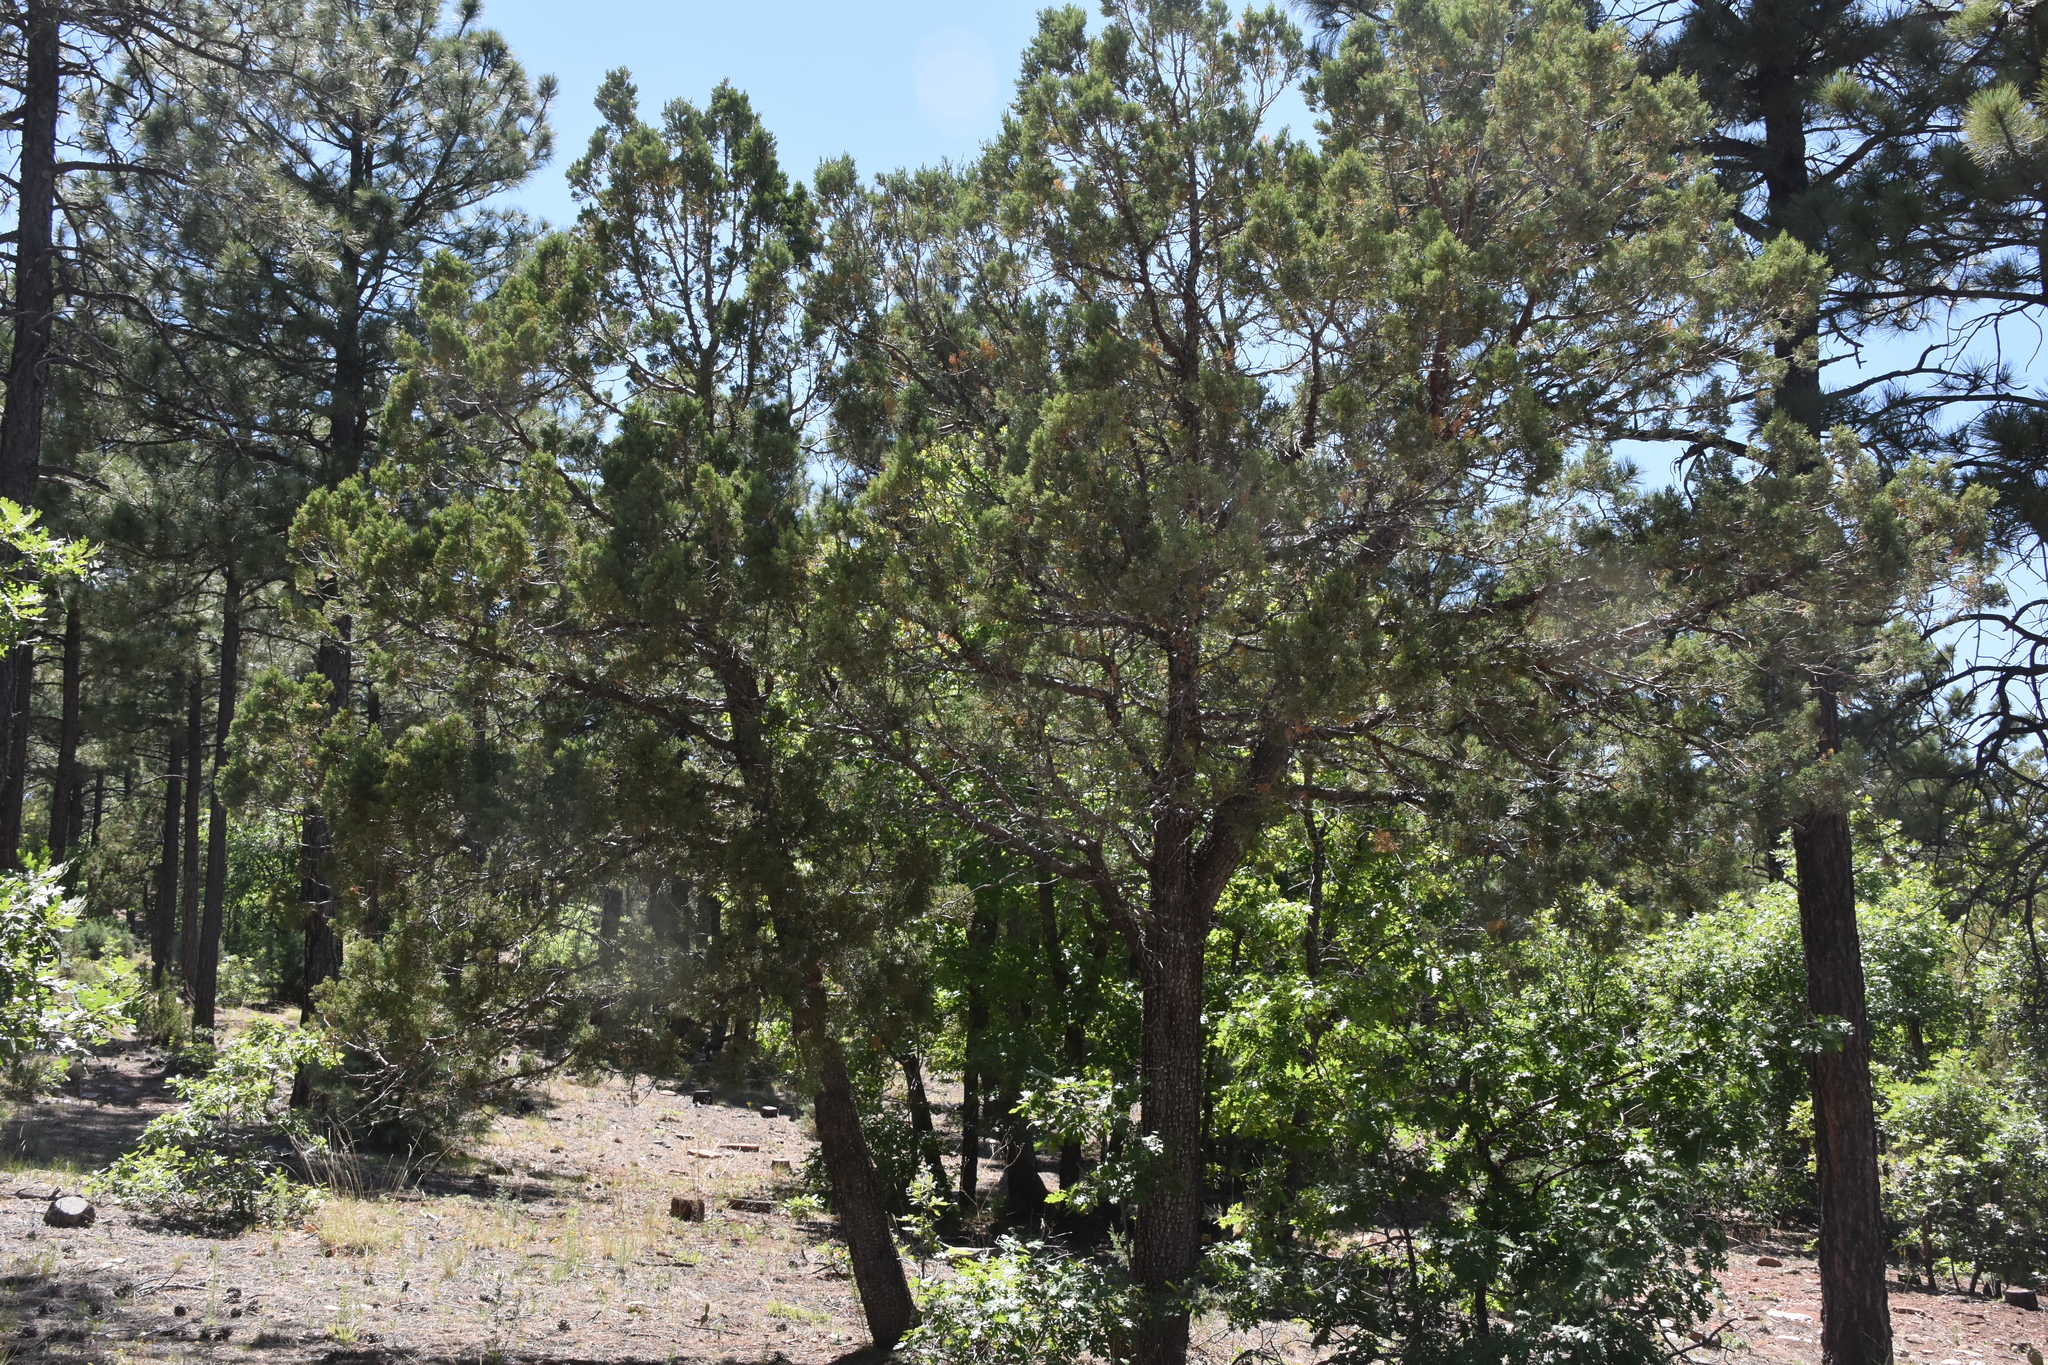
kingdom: Plantae
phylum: Tracheophyta
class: Pinopsida
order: Pinales
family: Cupressaceae
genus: Juniperus
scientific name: Juniperus deppeana
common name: Alligator juniper
